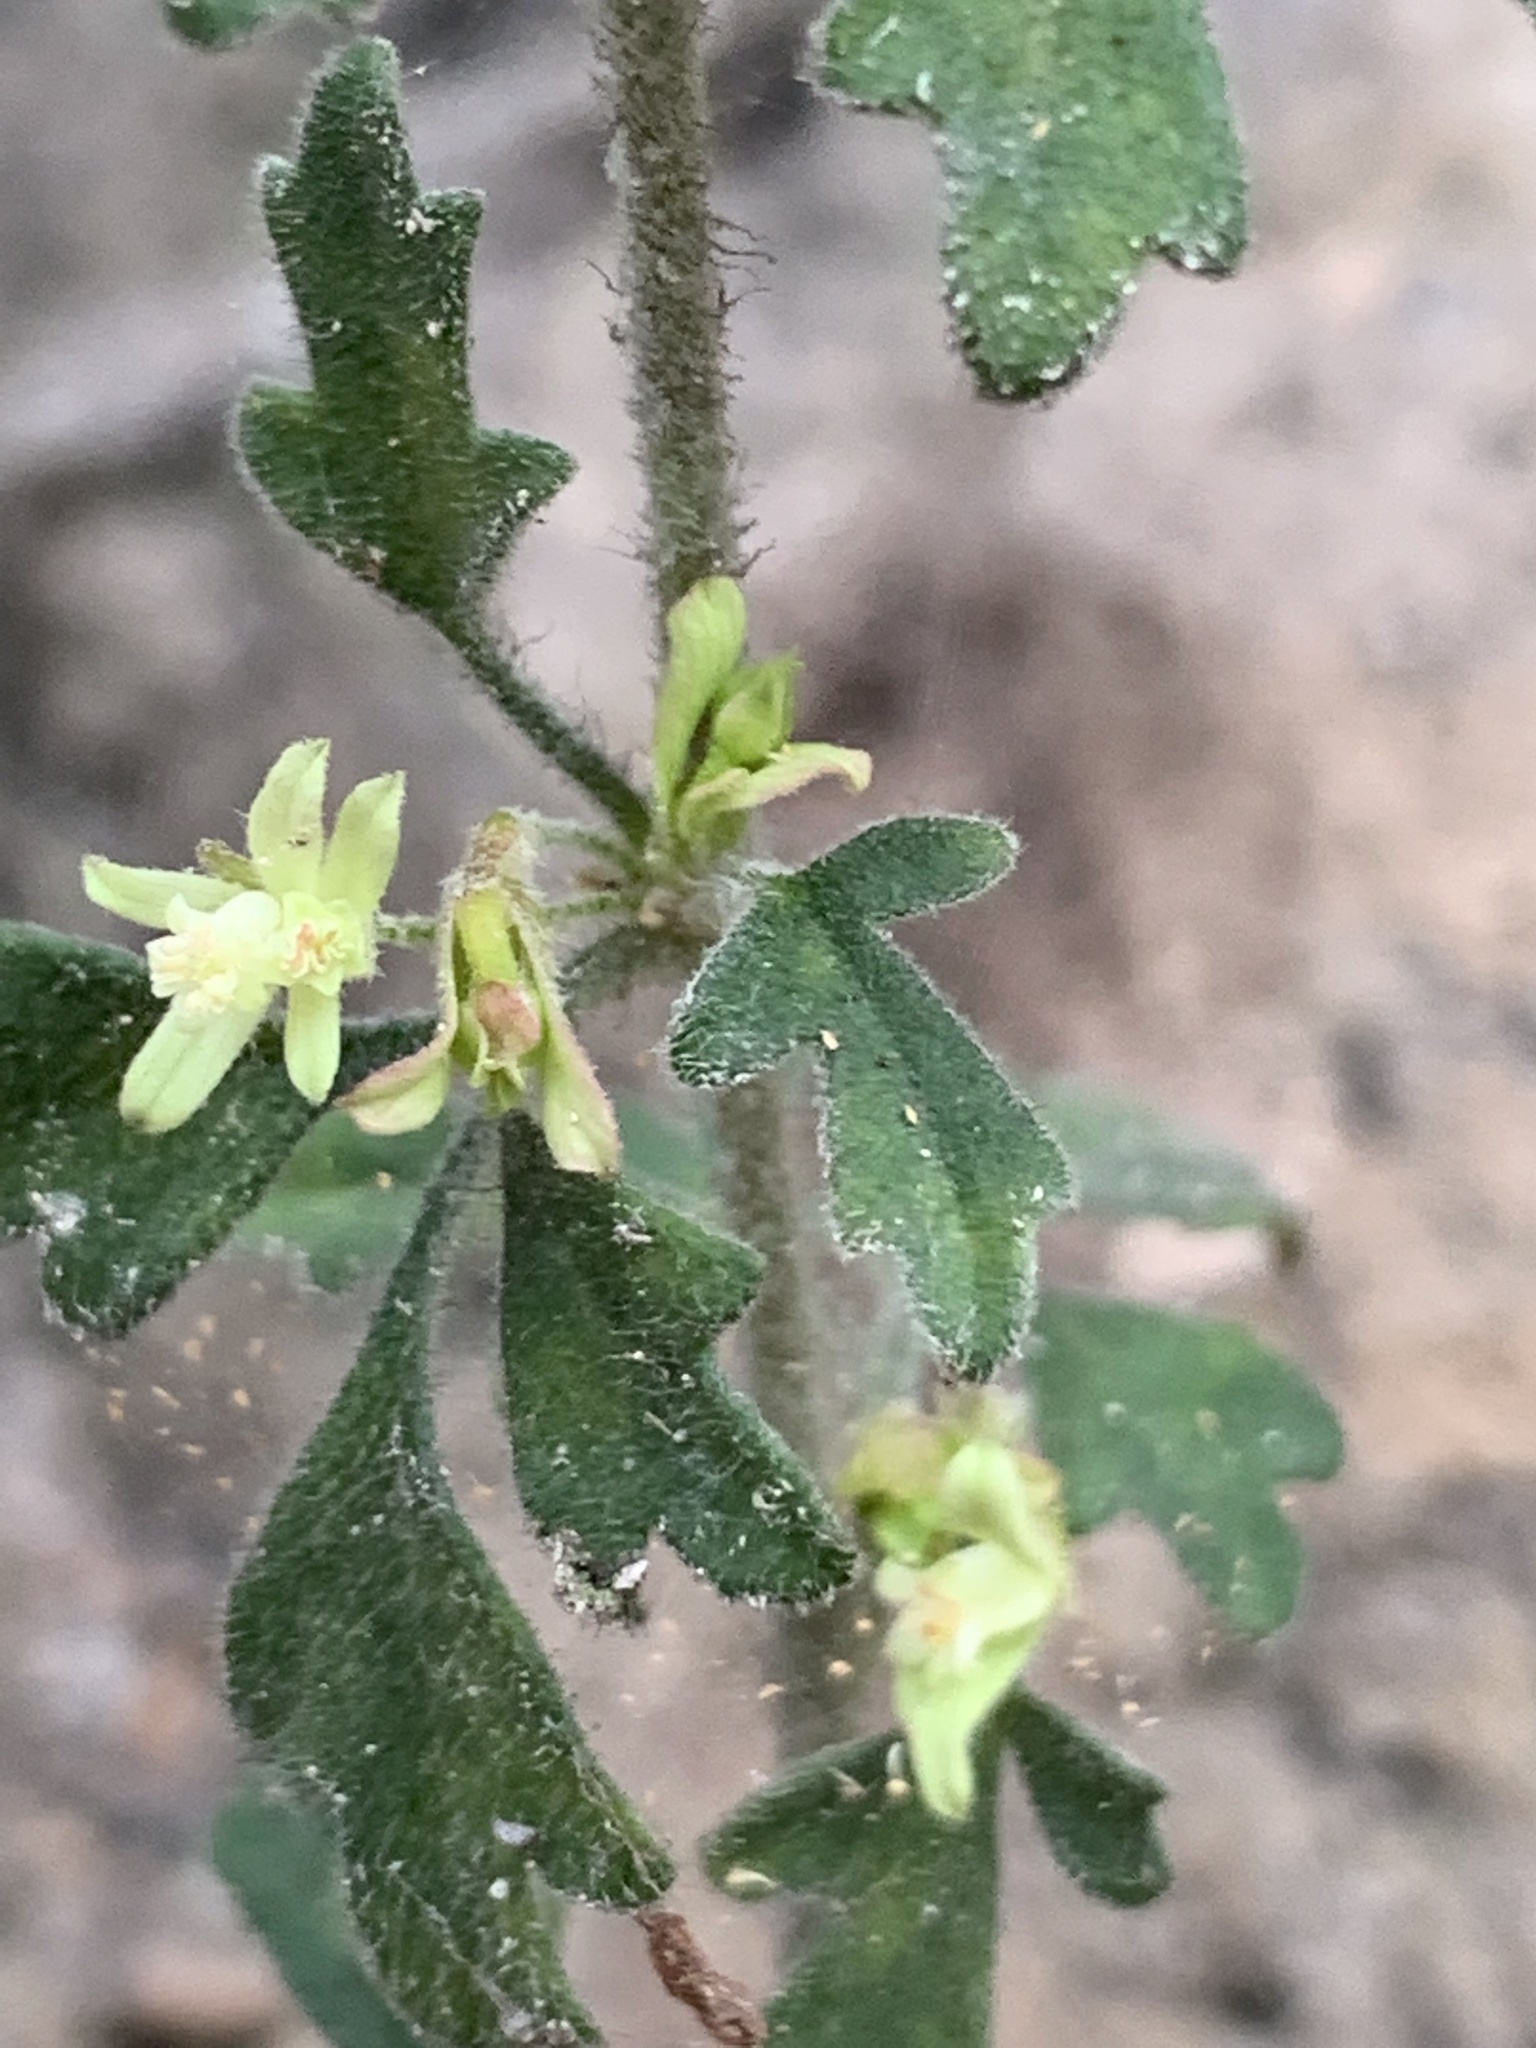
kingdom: Plantae
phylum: Tracheophyta
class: Magnoliopsida
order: Apiales
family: Apiaceae
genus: Xanthosia
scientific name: Xanthosia pilosa
